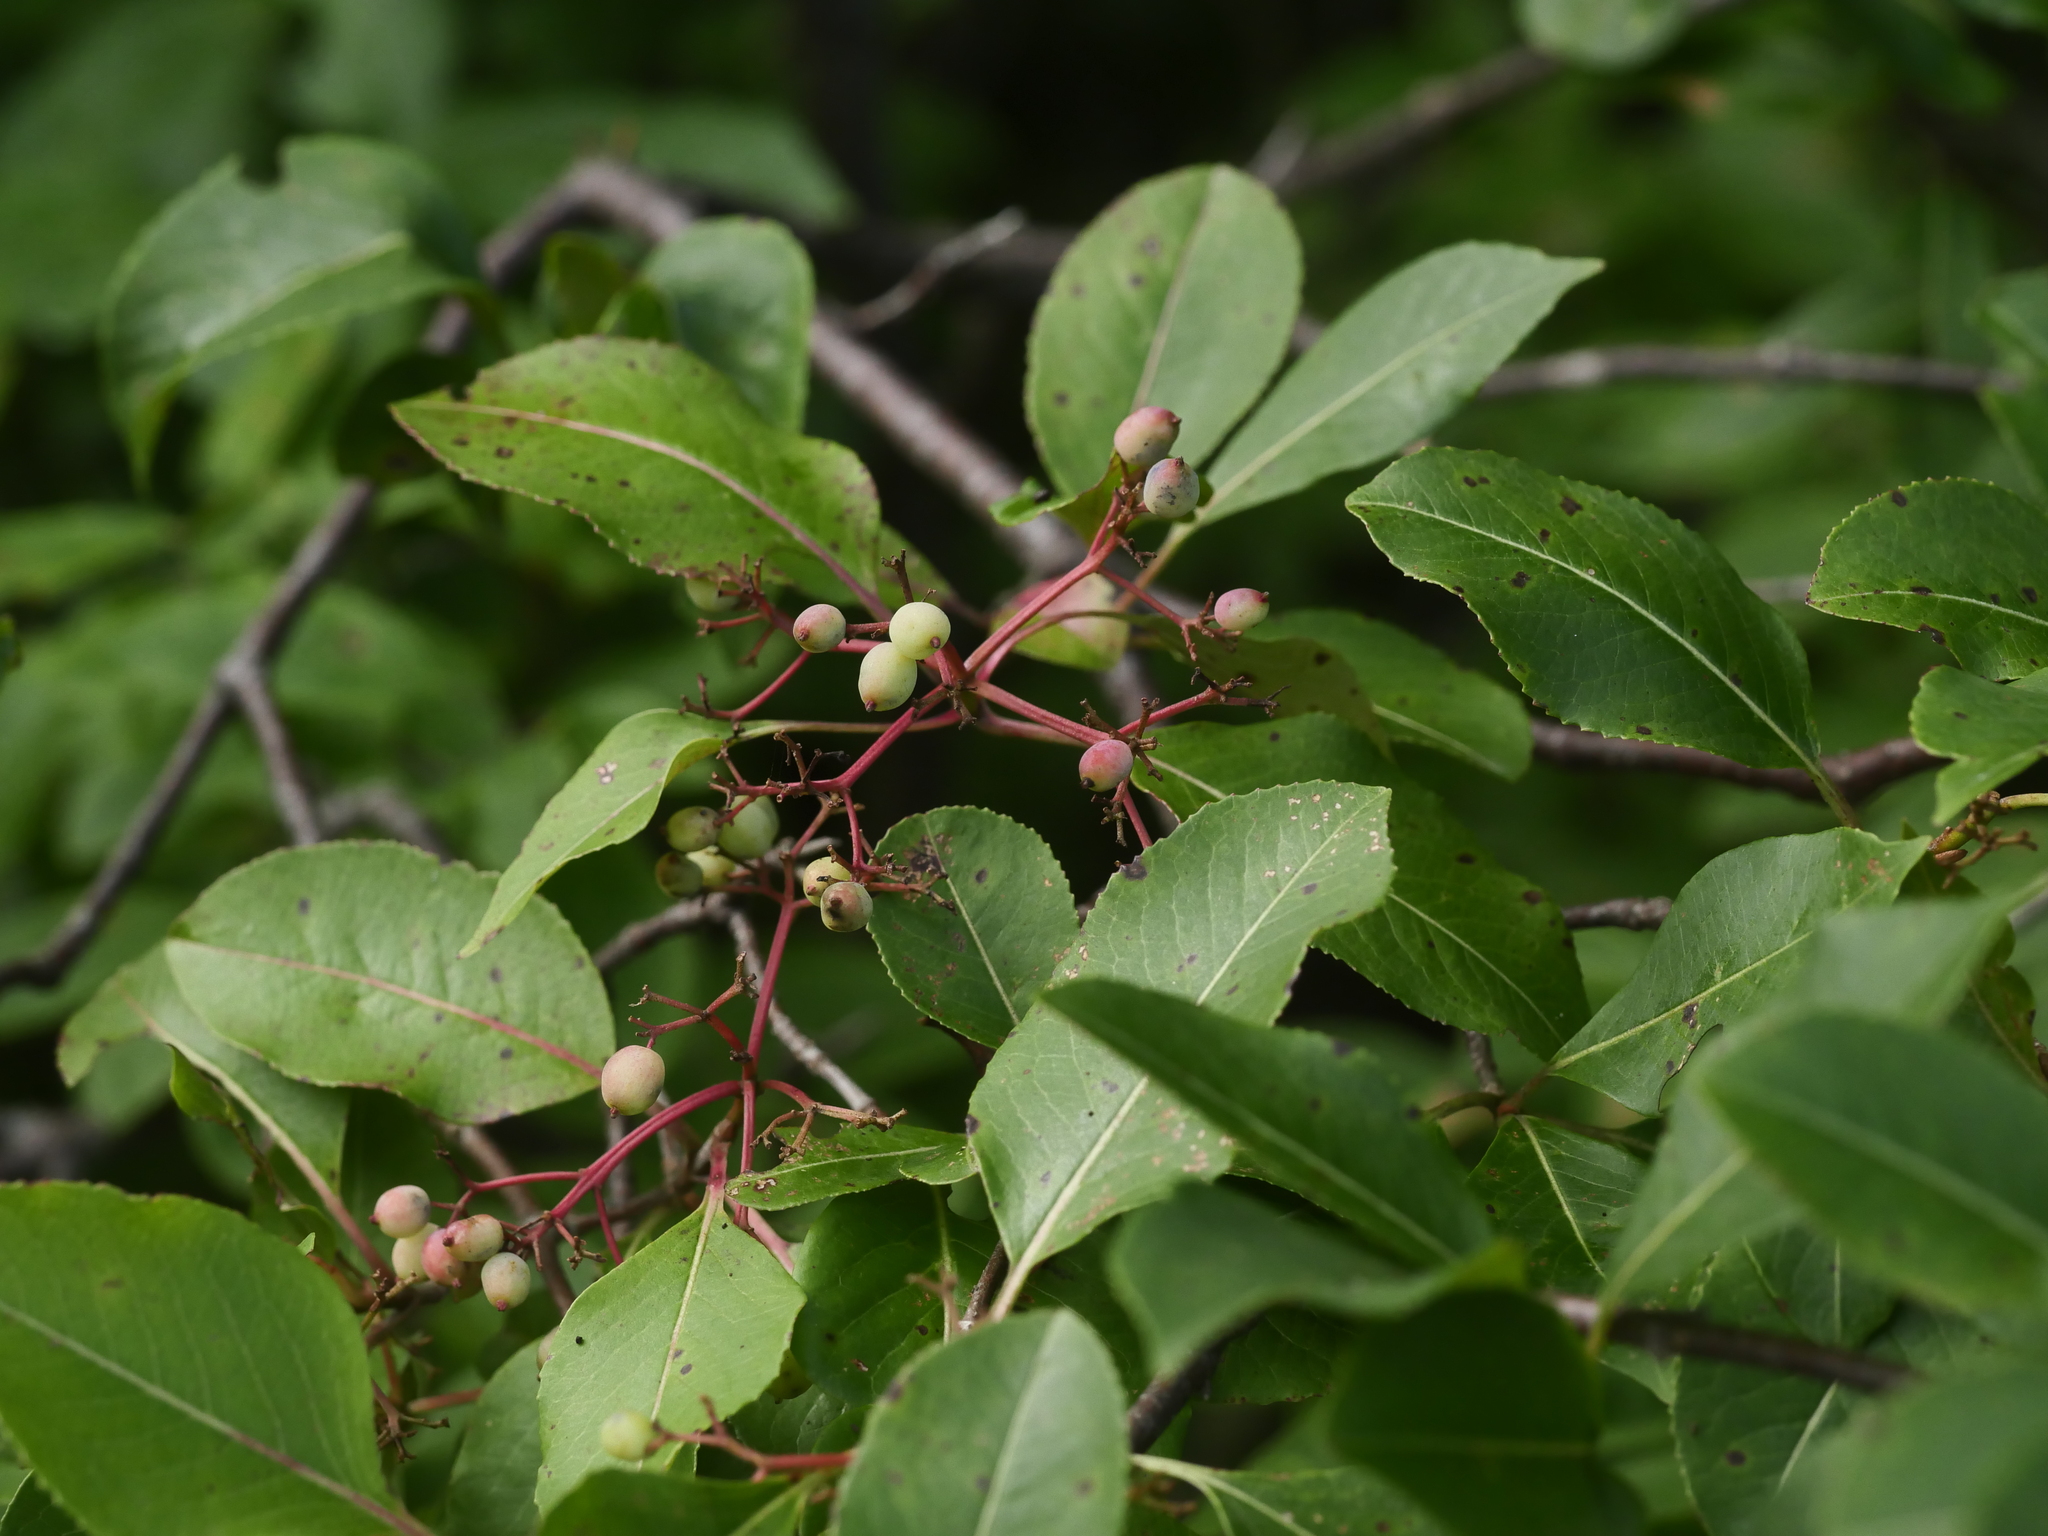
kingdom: Plantae
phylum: Tracheophyta
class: Magnoliopsida
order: Dipsacales
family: Viburnaceae
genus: Viburnum
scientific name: Viburnum cassinoides
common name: Swamp haw
